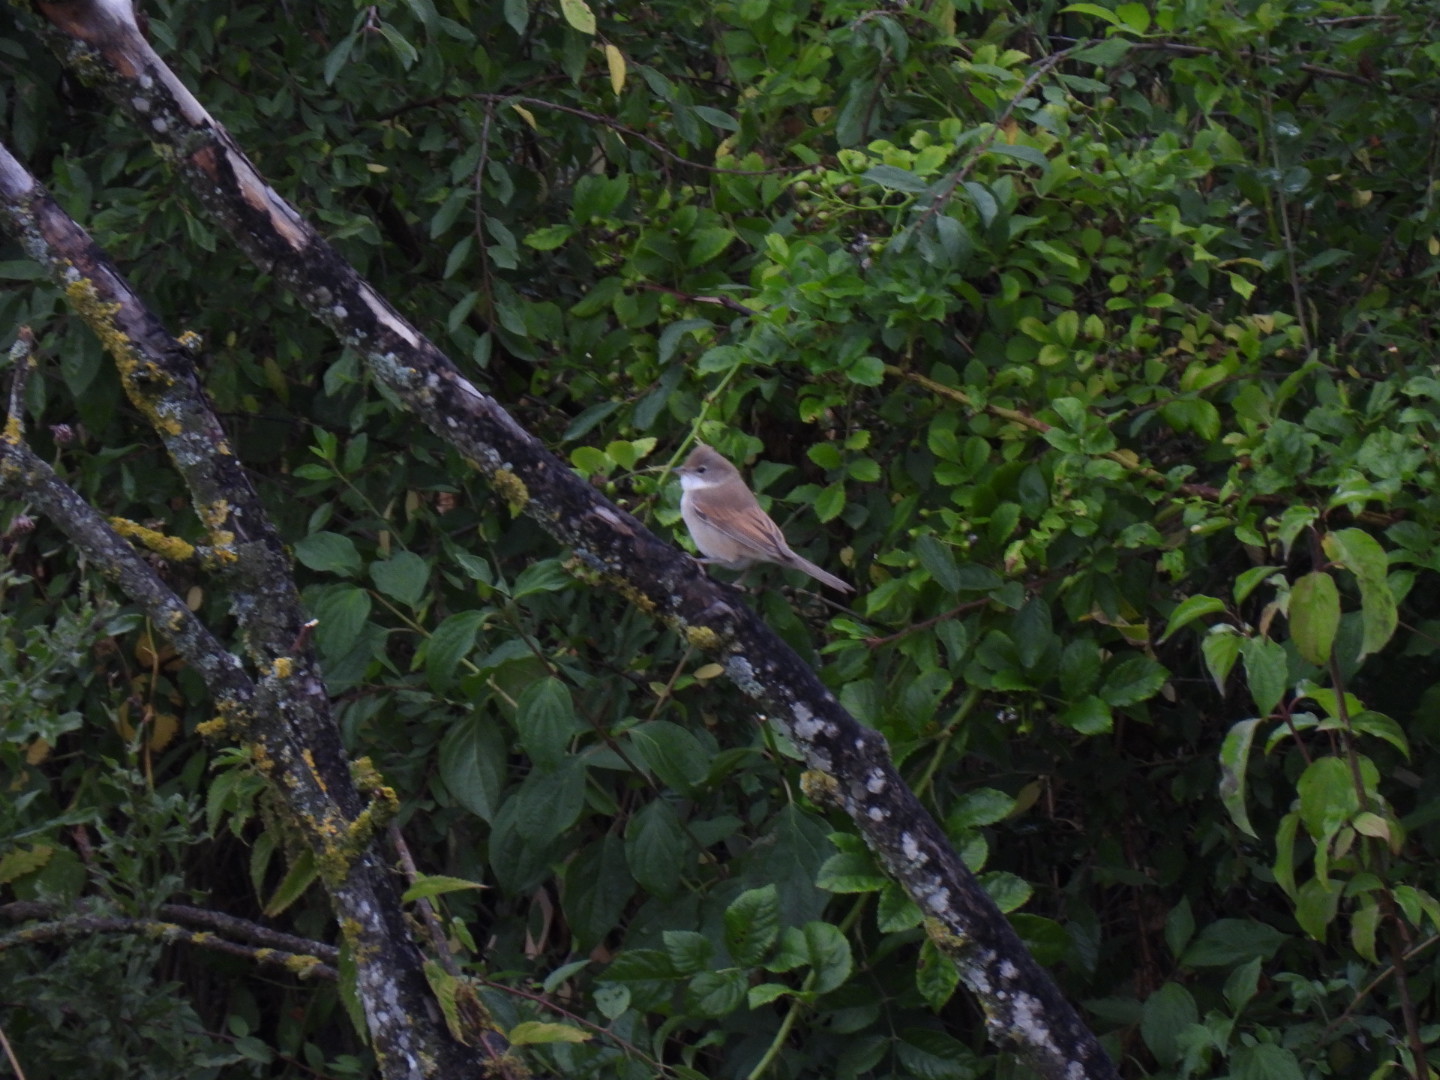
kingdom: Animalia
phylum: Chordata
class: Aves
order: Passeriformes
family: Sylviidae
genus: Sylvia
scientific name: Sylvia communis
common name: Common whitethroat
